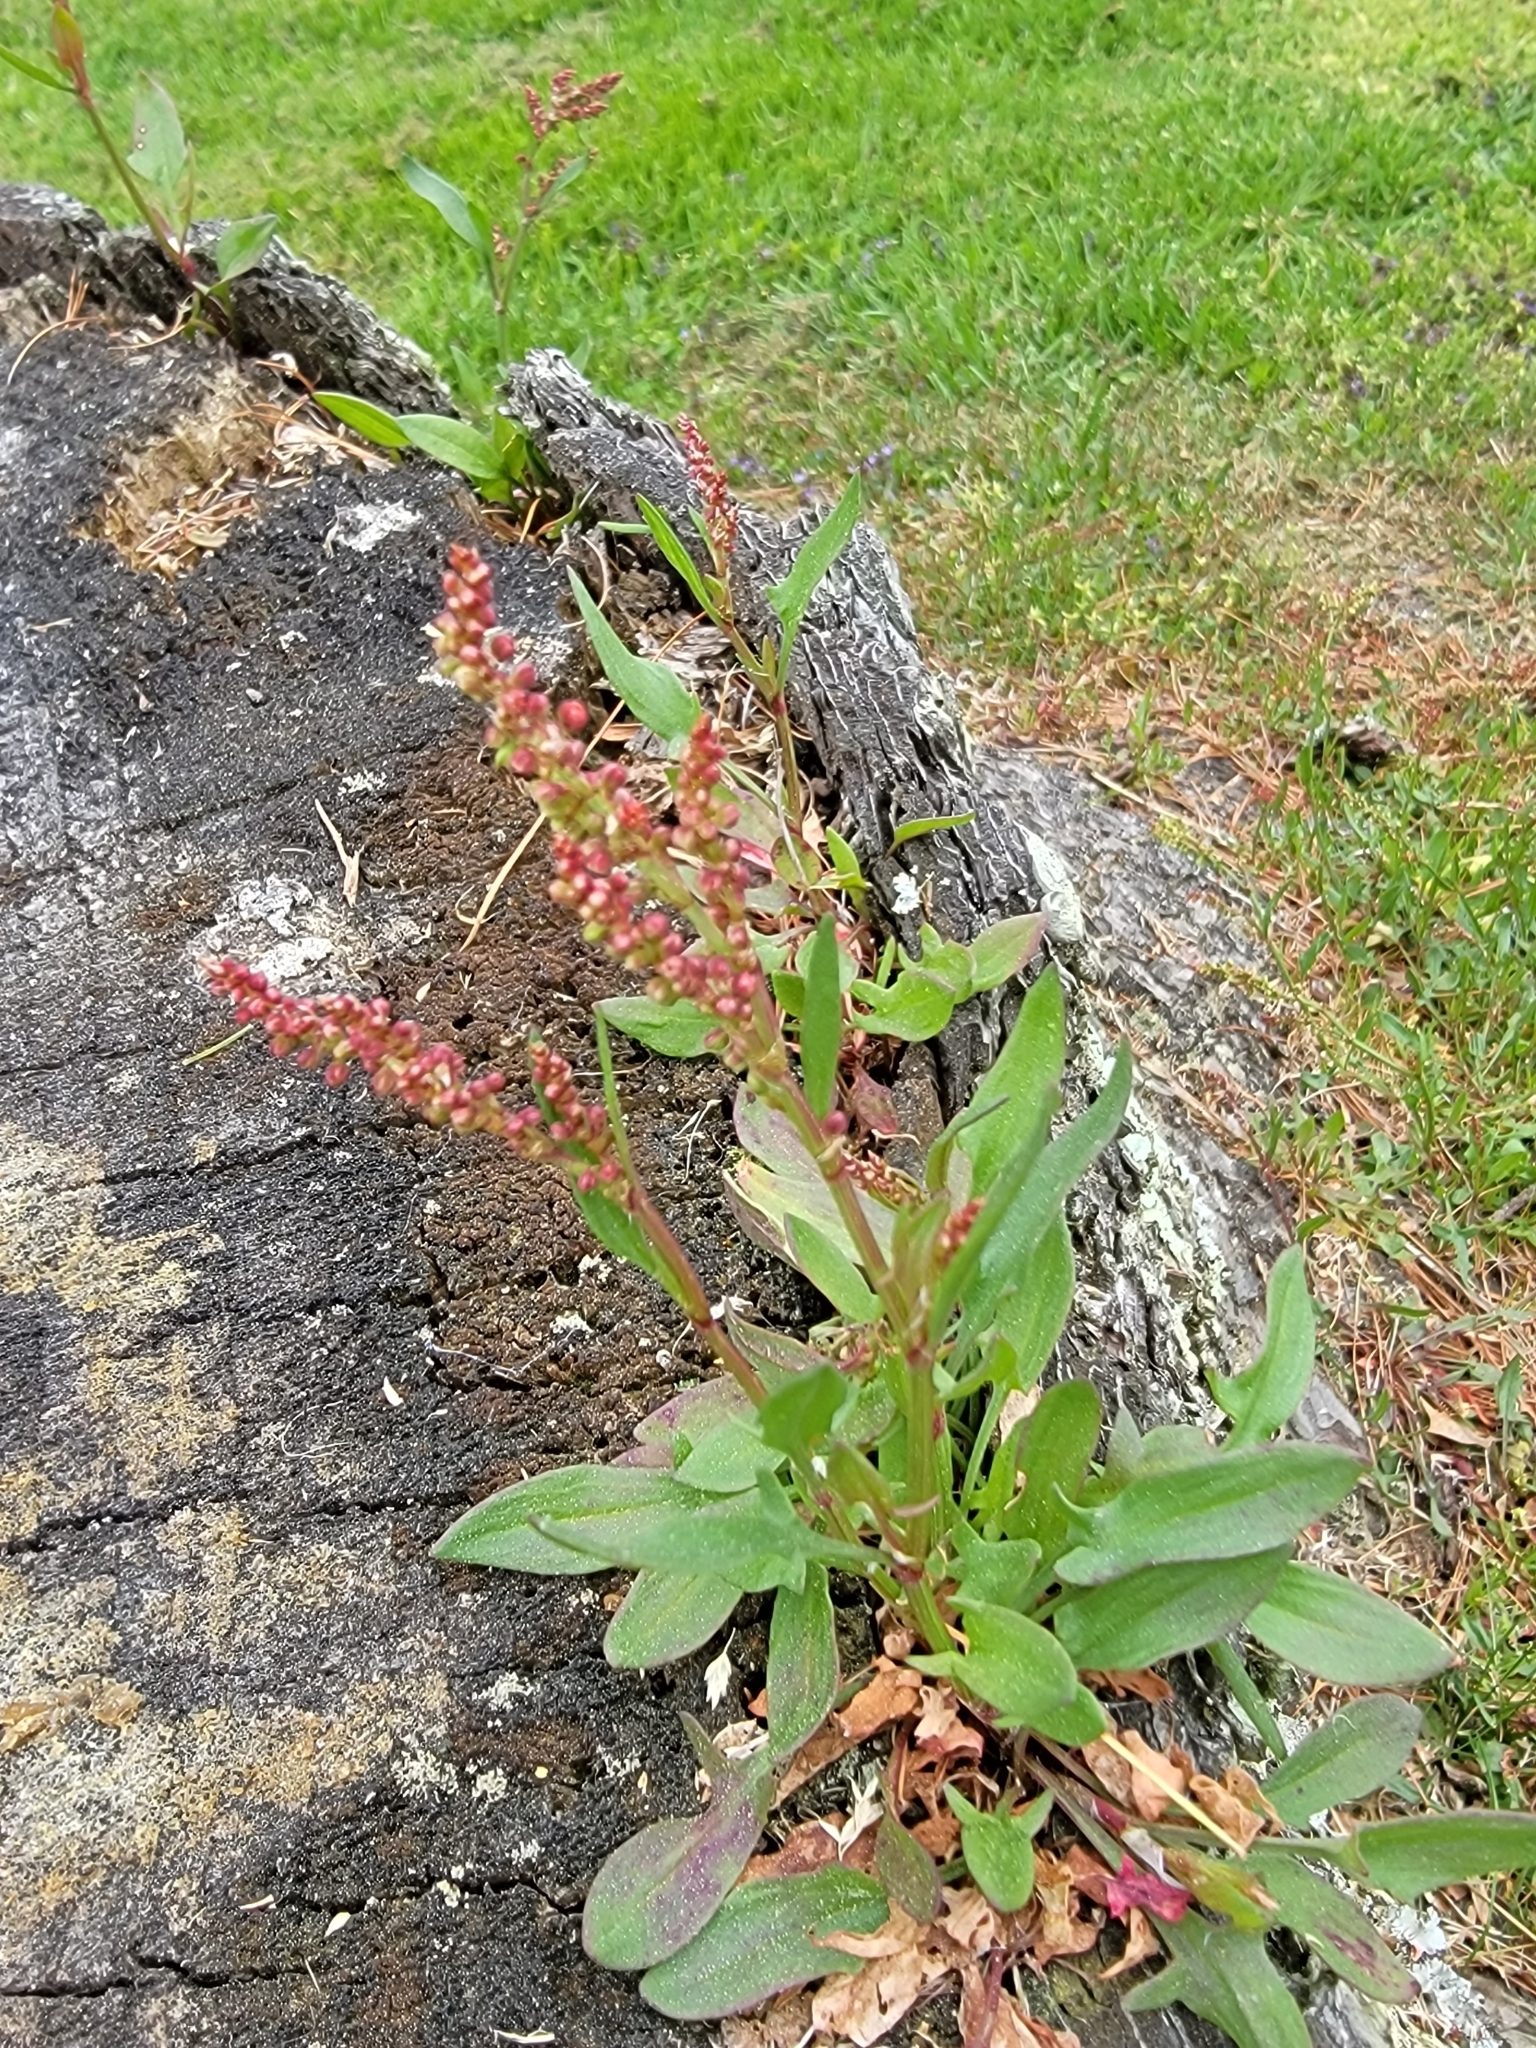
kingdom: Plantae
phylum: Tracheophyta
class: Magnoliopsida
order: Caryophyllales
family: Polygonaceae
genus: Rumex
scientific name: Rumex acetosella
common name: Common sheep sorrel
